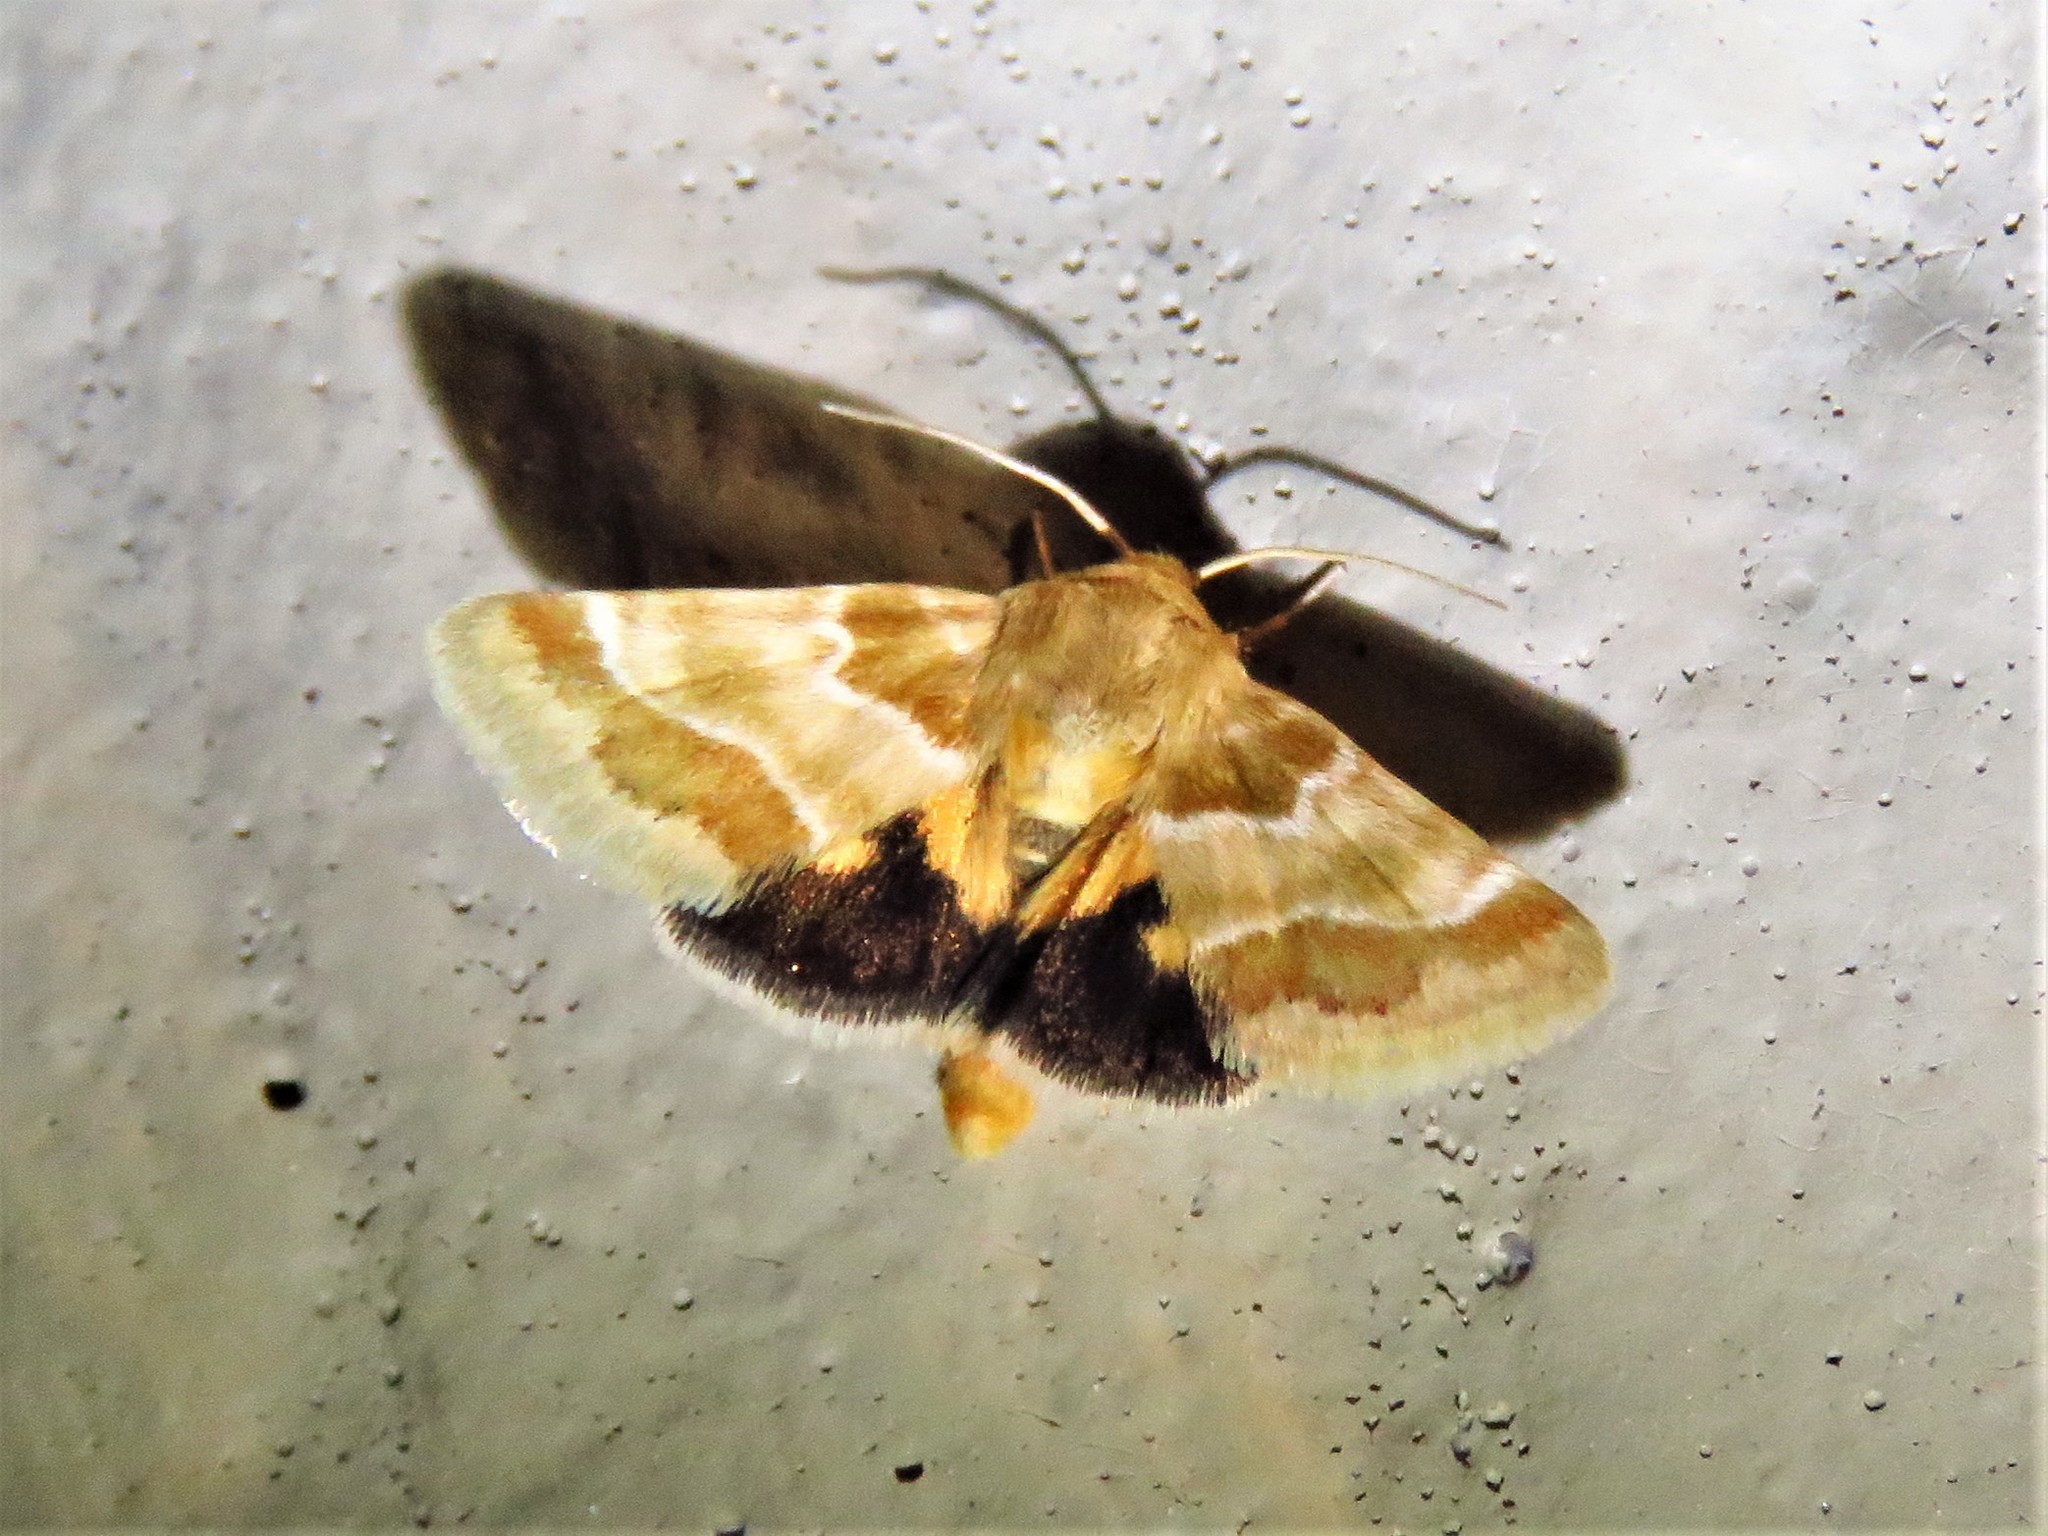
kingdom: Animalia
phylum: Arthropoda
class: Insecta
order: Lepidoptera
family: Noctuidae
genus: Schinia
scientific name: Schinia lynx
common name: Lynx flower moth
